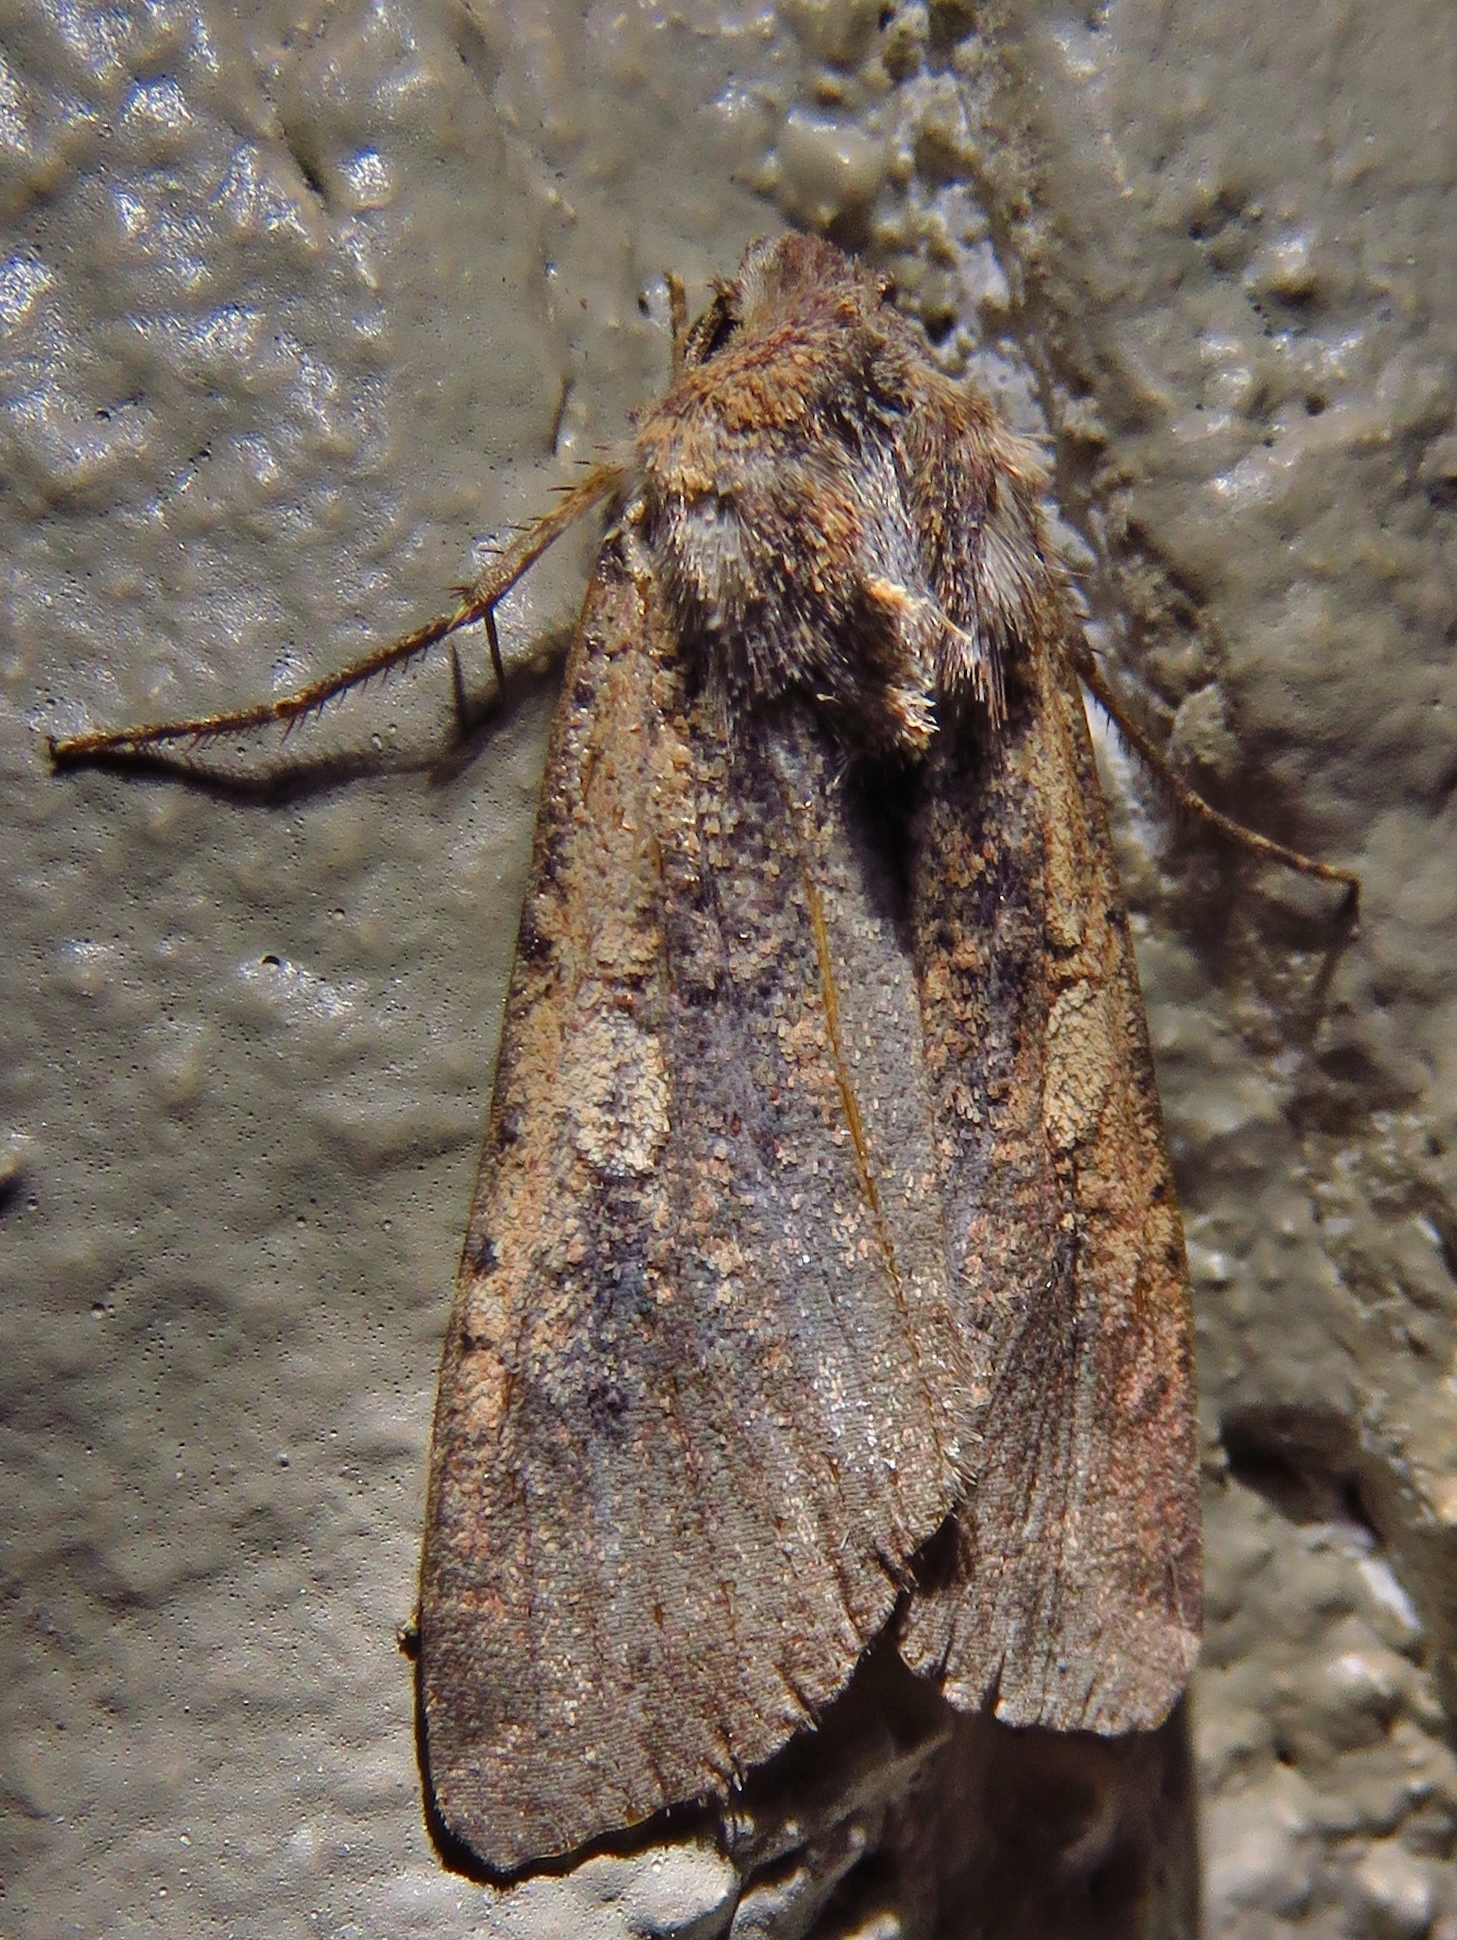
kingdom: Animalia
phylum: Arthropoda
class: Insecta
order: Lepidoptera
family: Noctuidae
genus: Peridroma
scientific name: Peridroma saucia
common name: Pearly underwing
